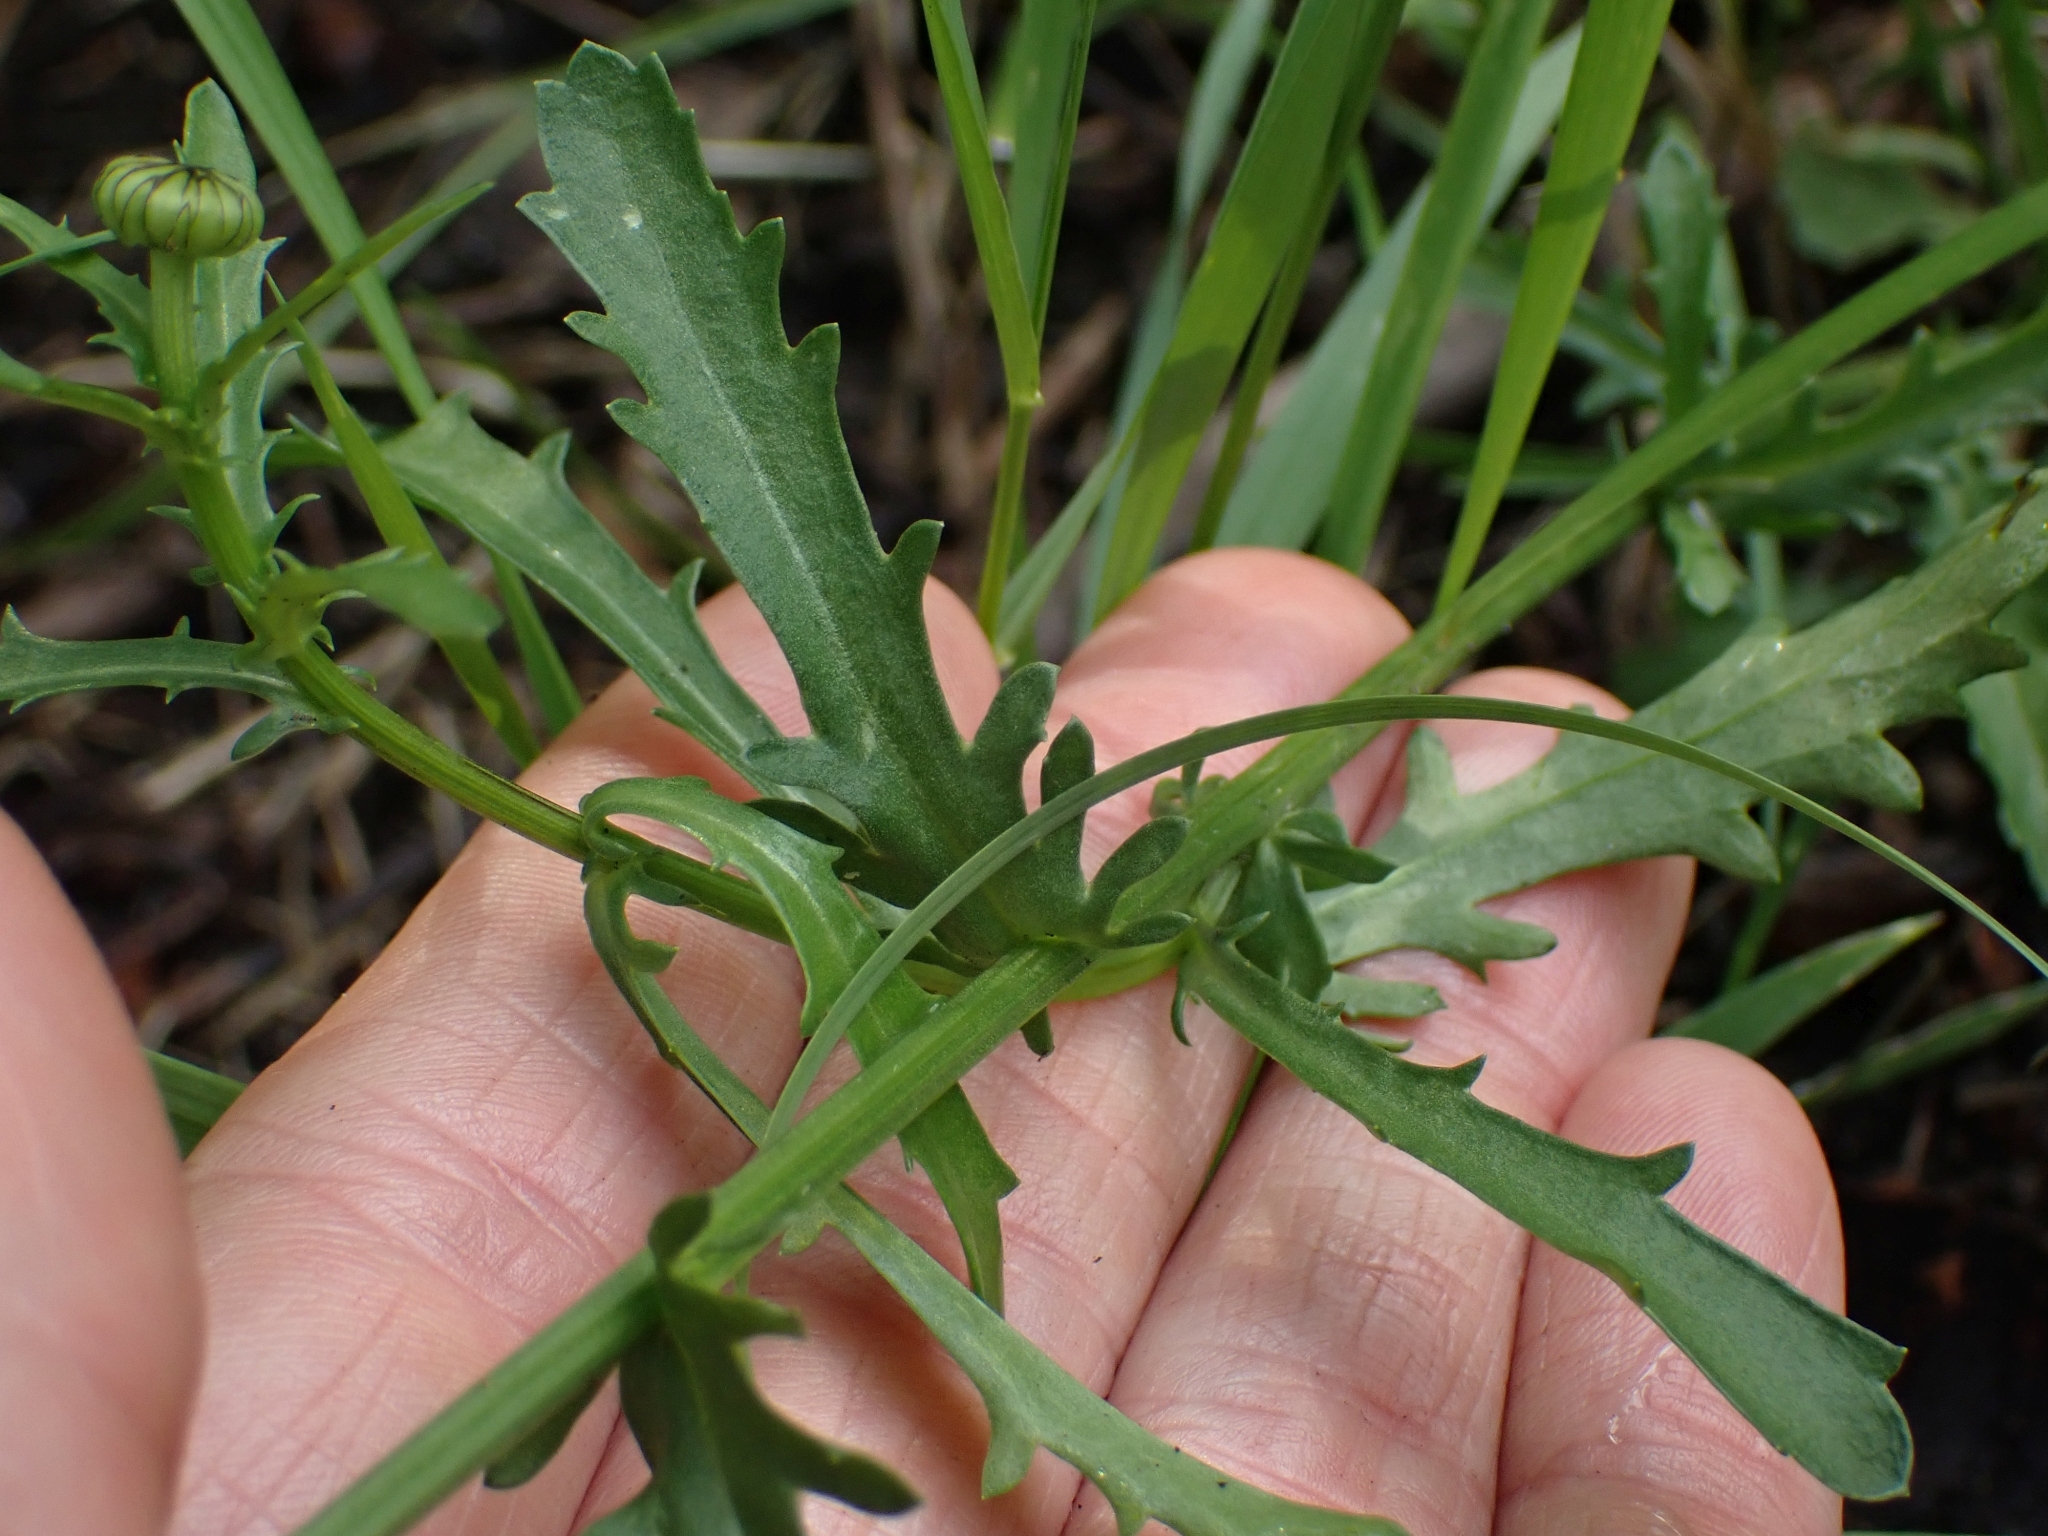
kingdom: Plantae
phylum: Tracheophyta
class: Magnoliopsida
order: Asterales
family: Asteraceae
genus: Leucanthemum
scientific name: Leucanthemum vulgare
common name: Oxeye daisy
